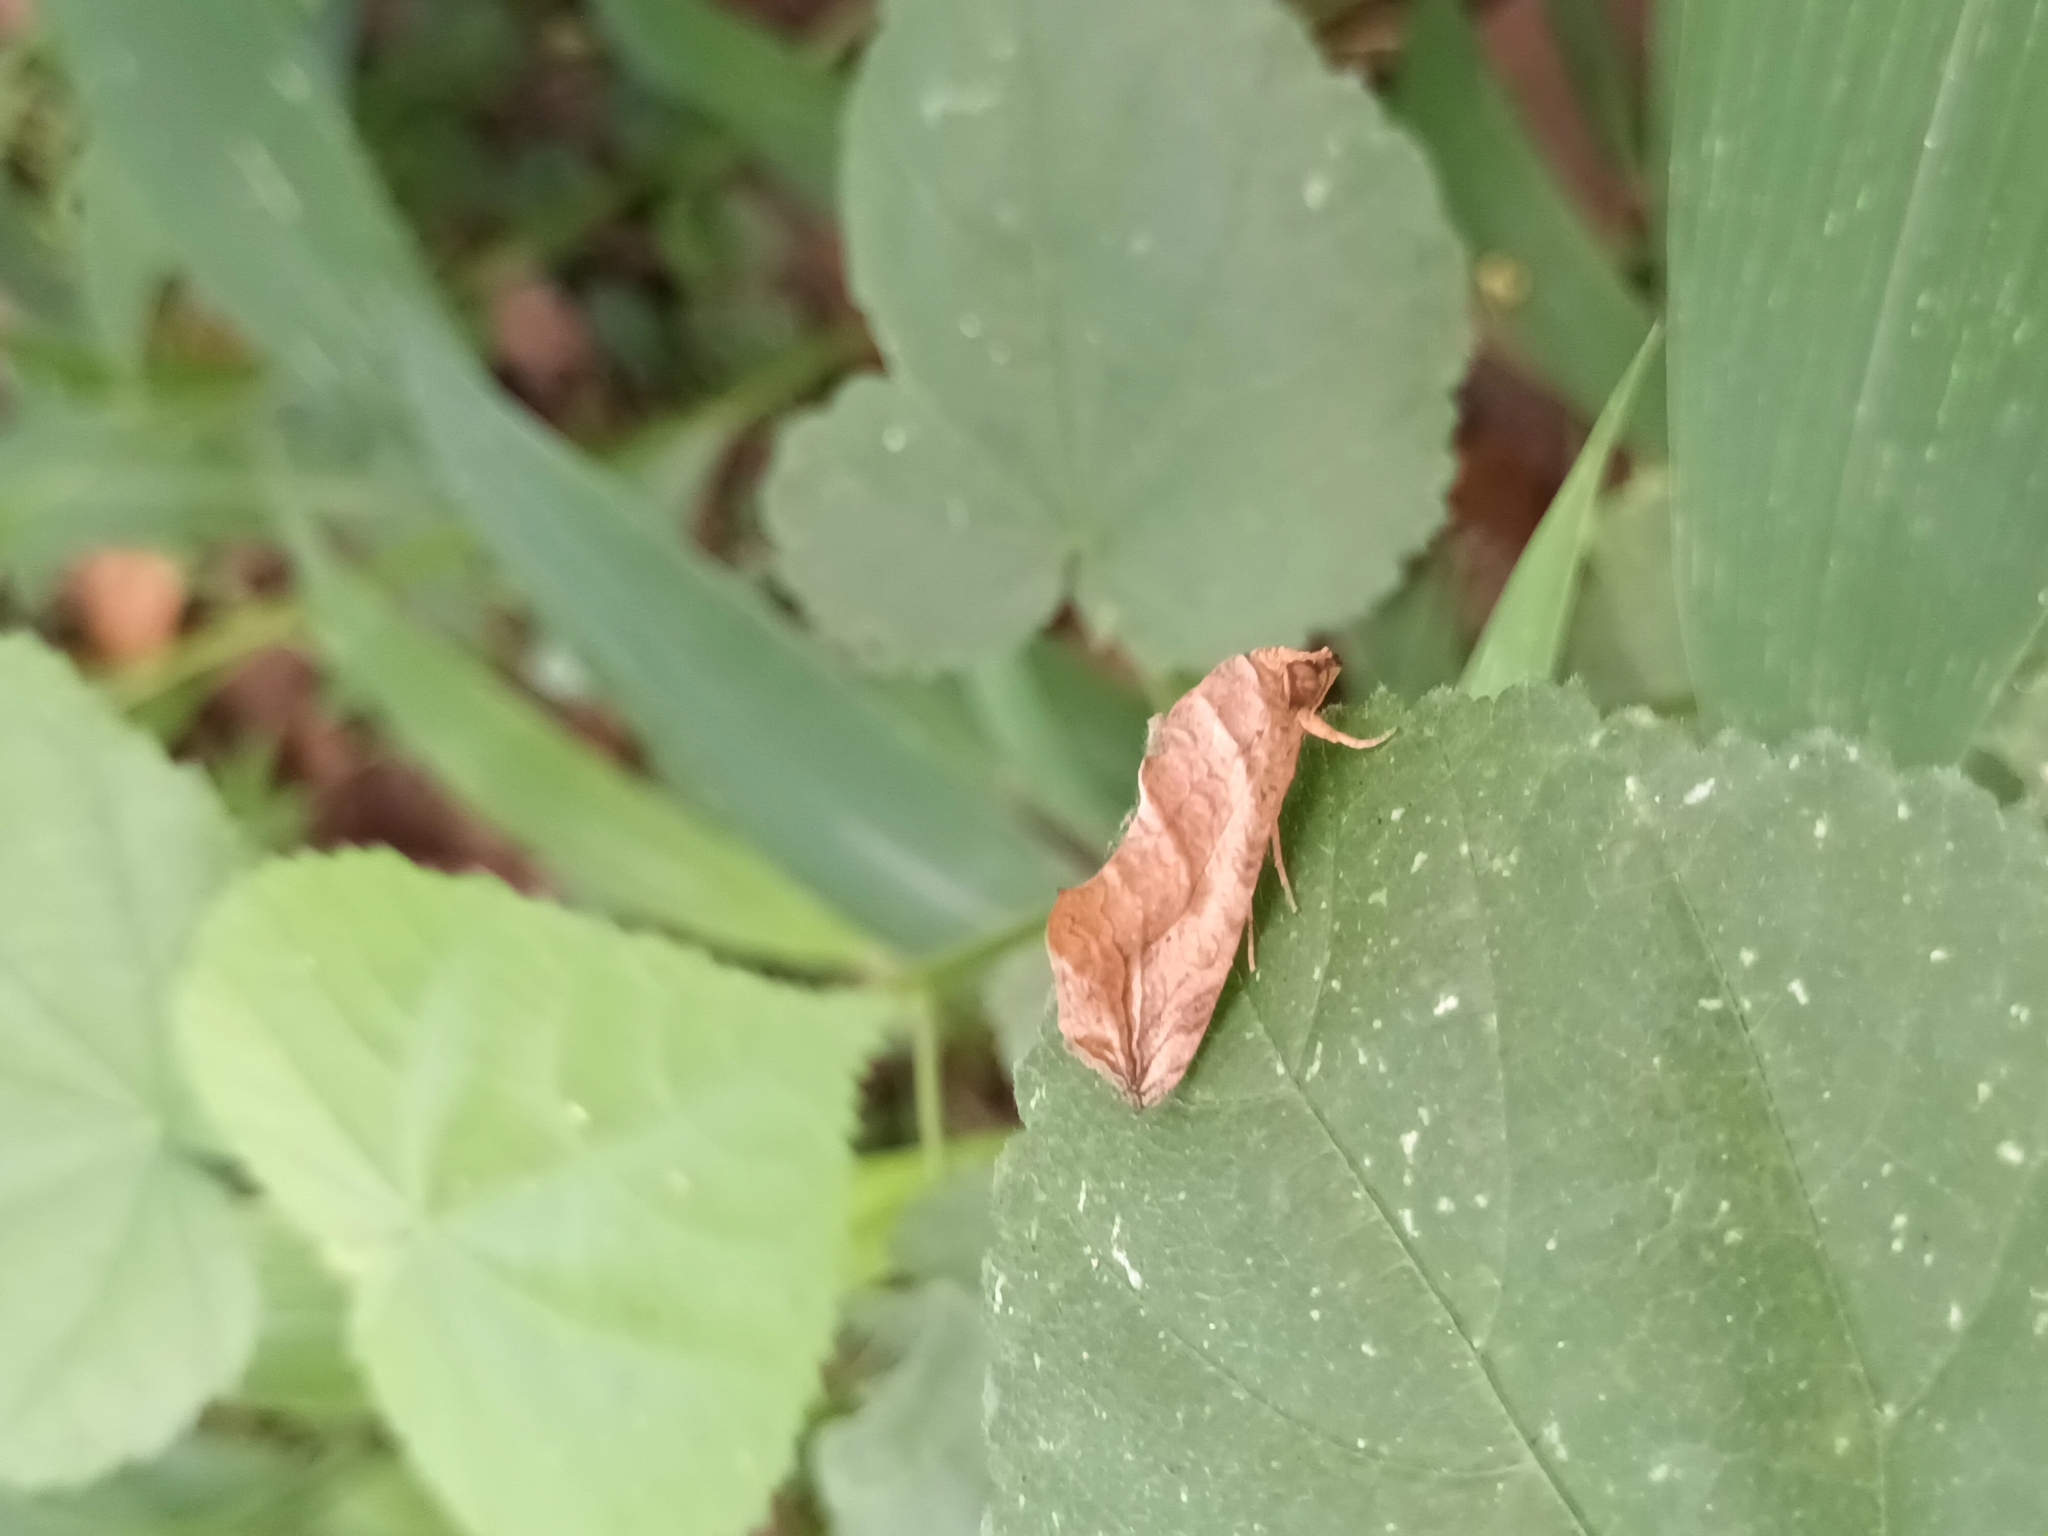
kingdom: Animalia
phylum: Arthropoda
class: Insecta
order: Lepidoptera
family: Erebidae
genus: Oraesia
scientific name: Oraesia emarginata
